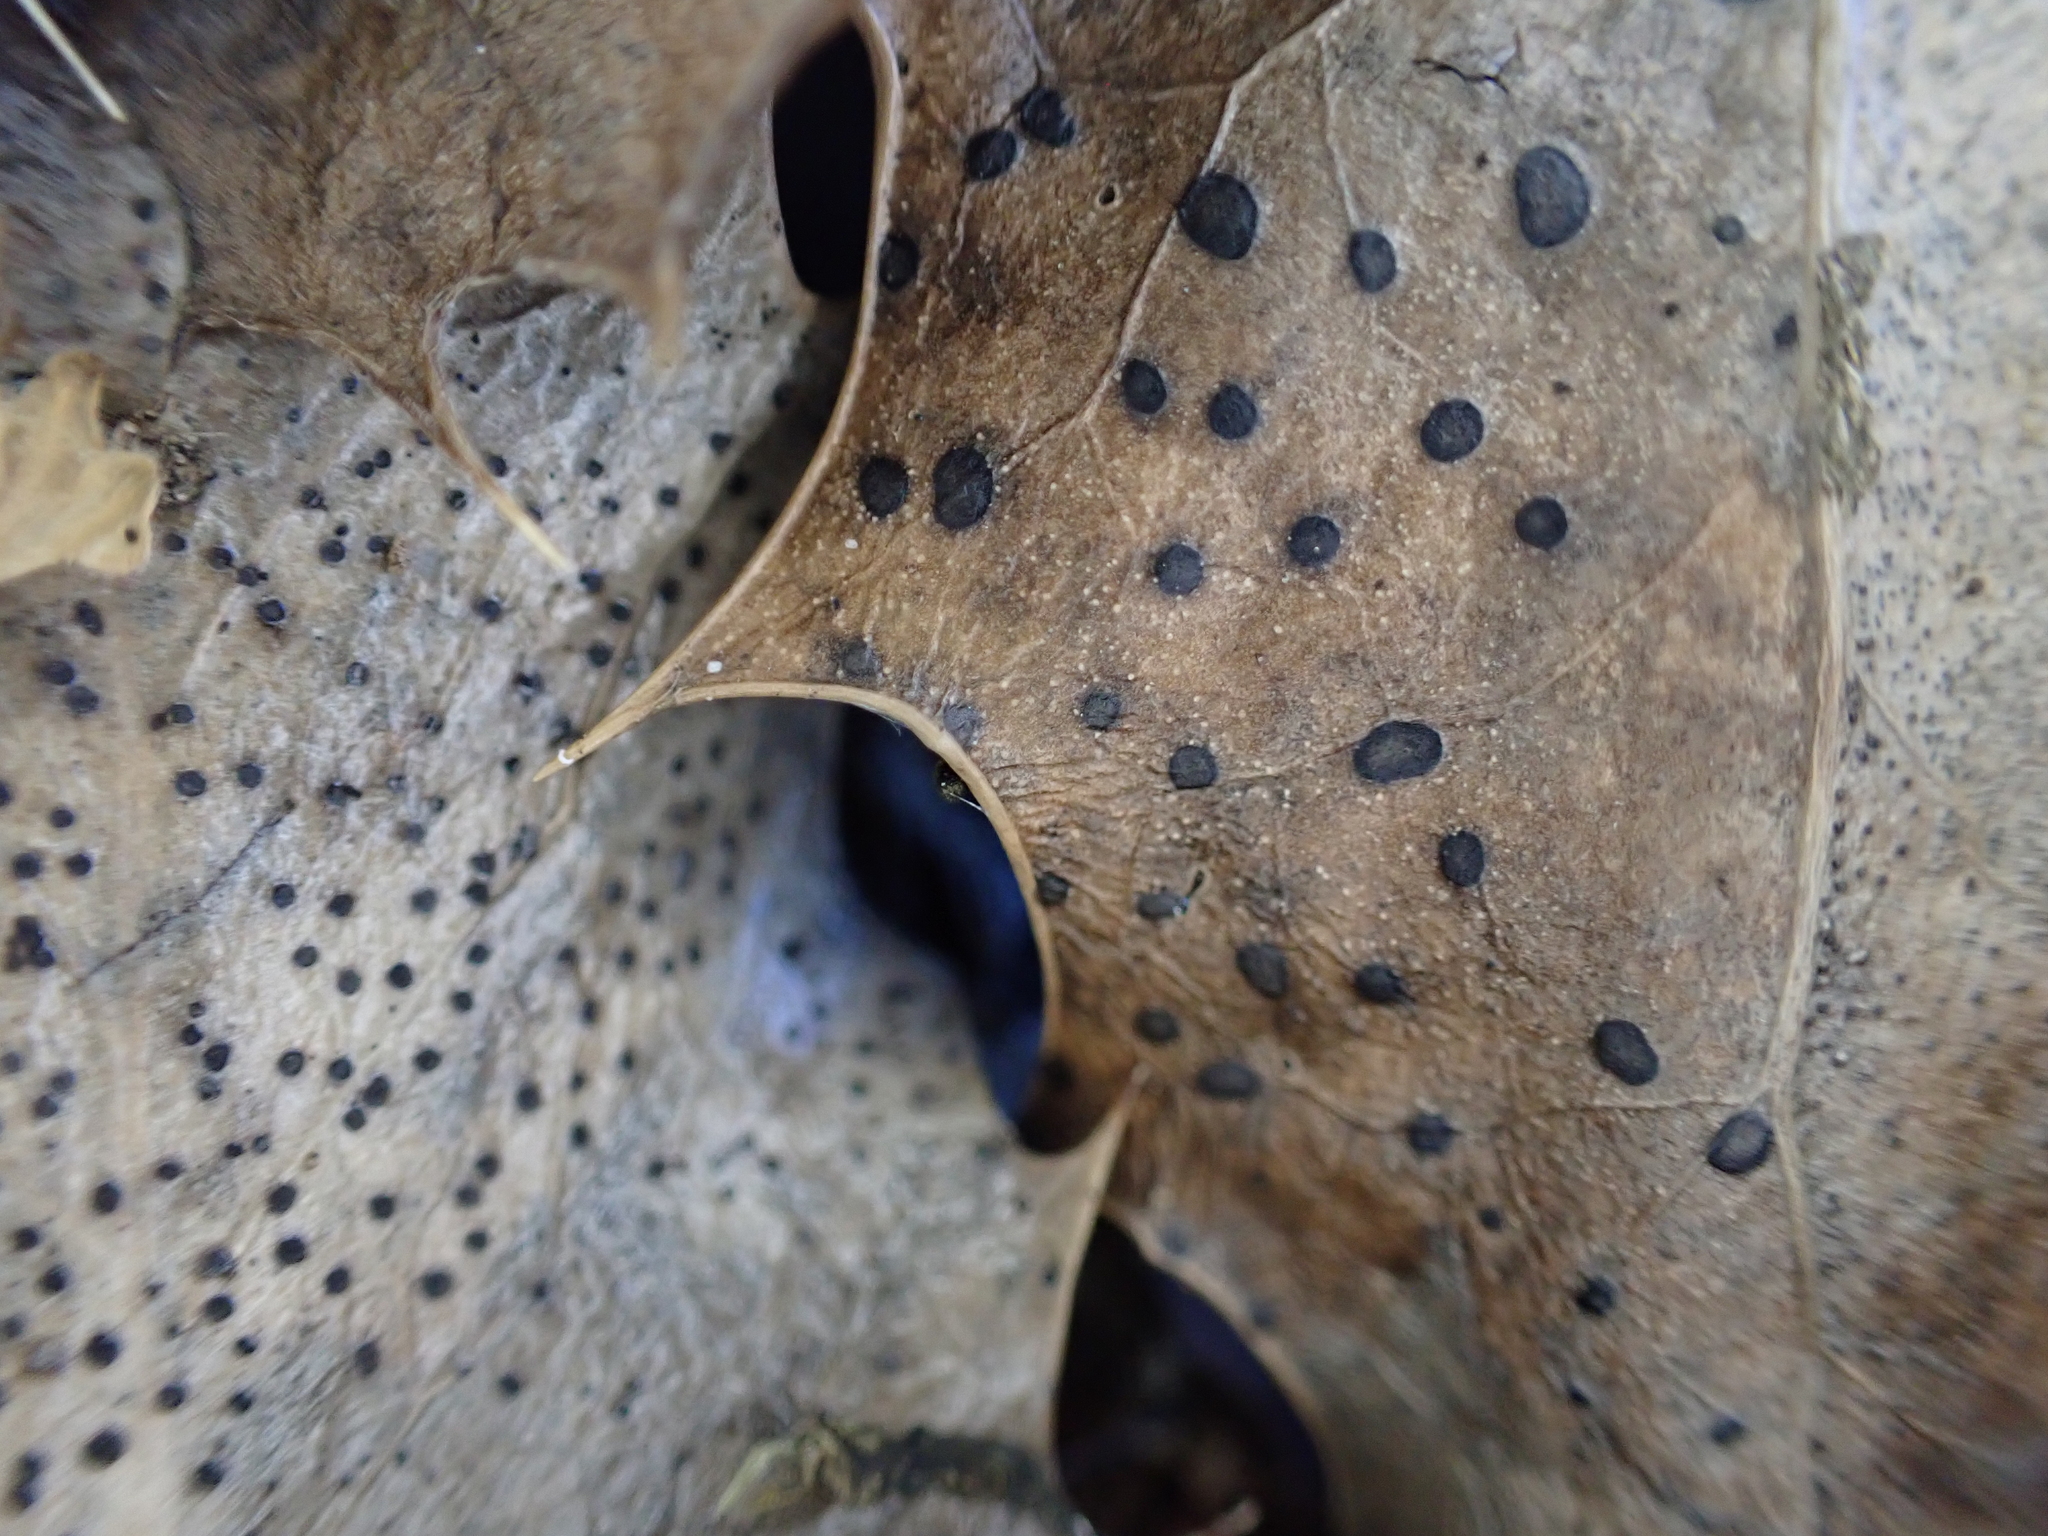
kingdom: Fungi
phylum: Ascomycota
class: Leotiomycetes
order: Phacidiales
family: Phacidiaceae
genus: Phacidium
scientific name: Phacidium lauri
